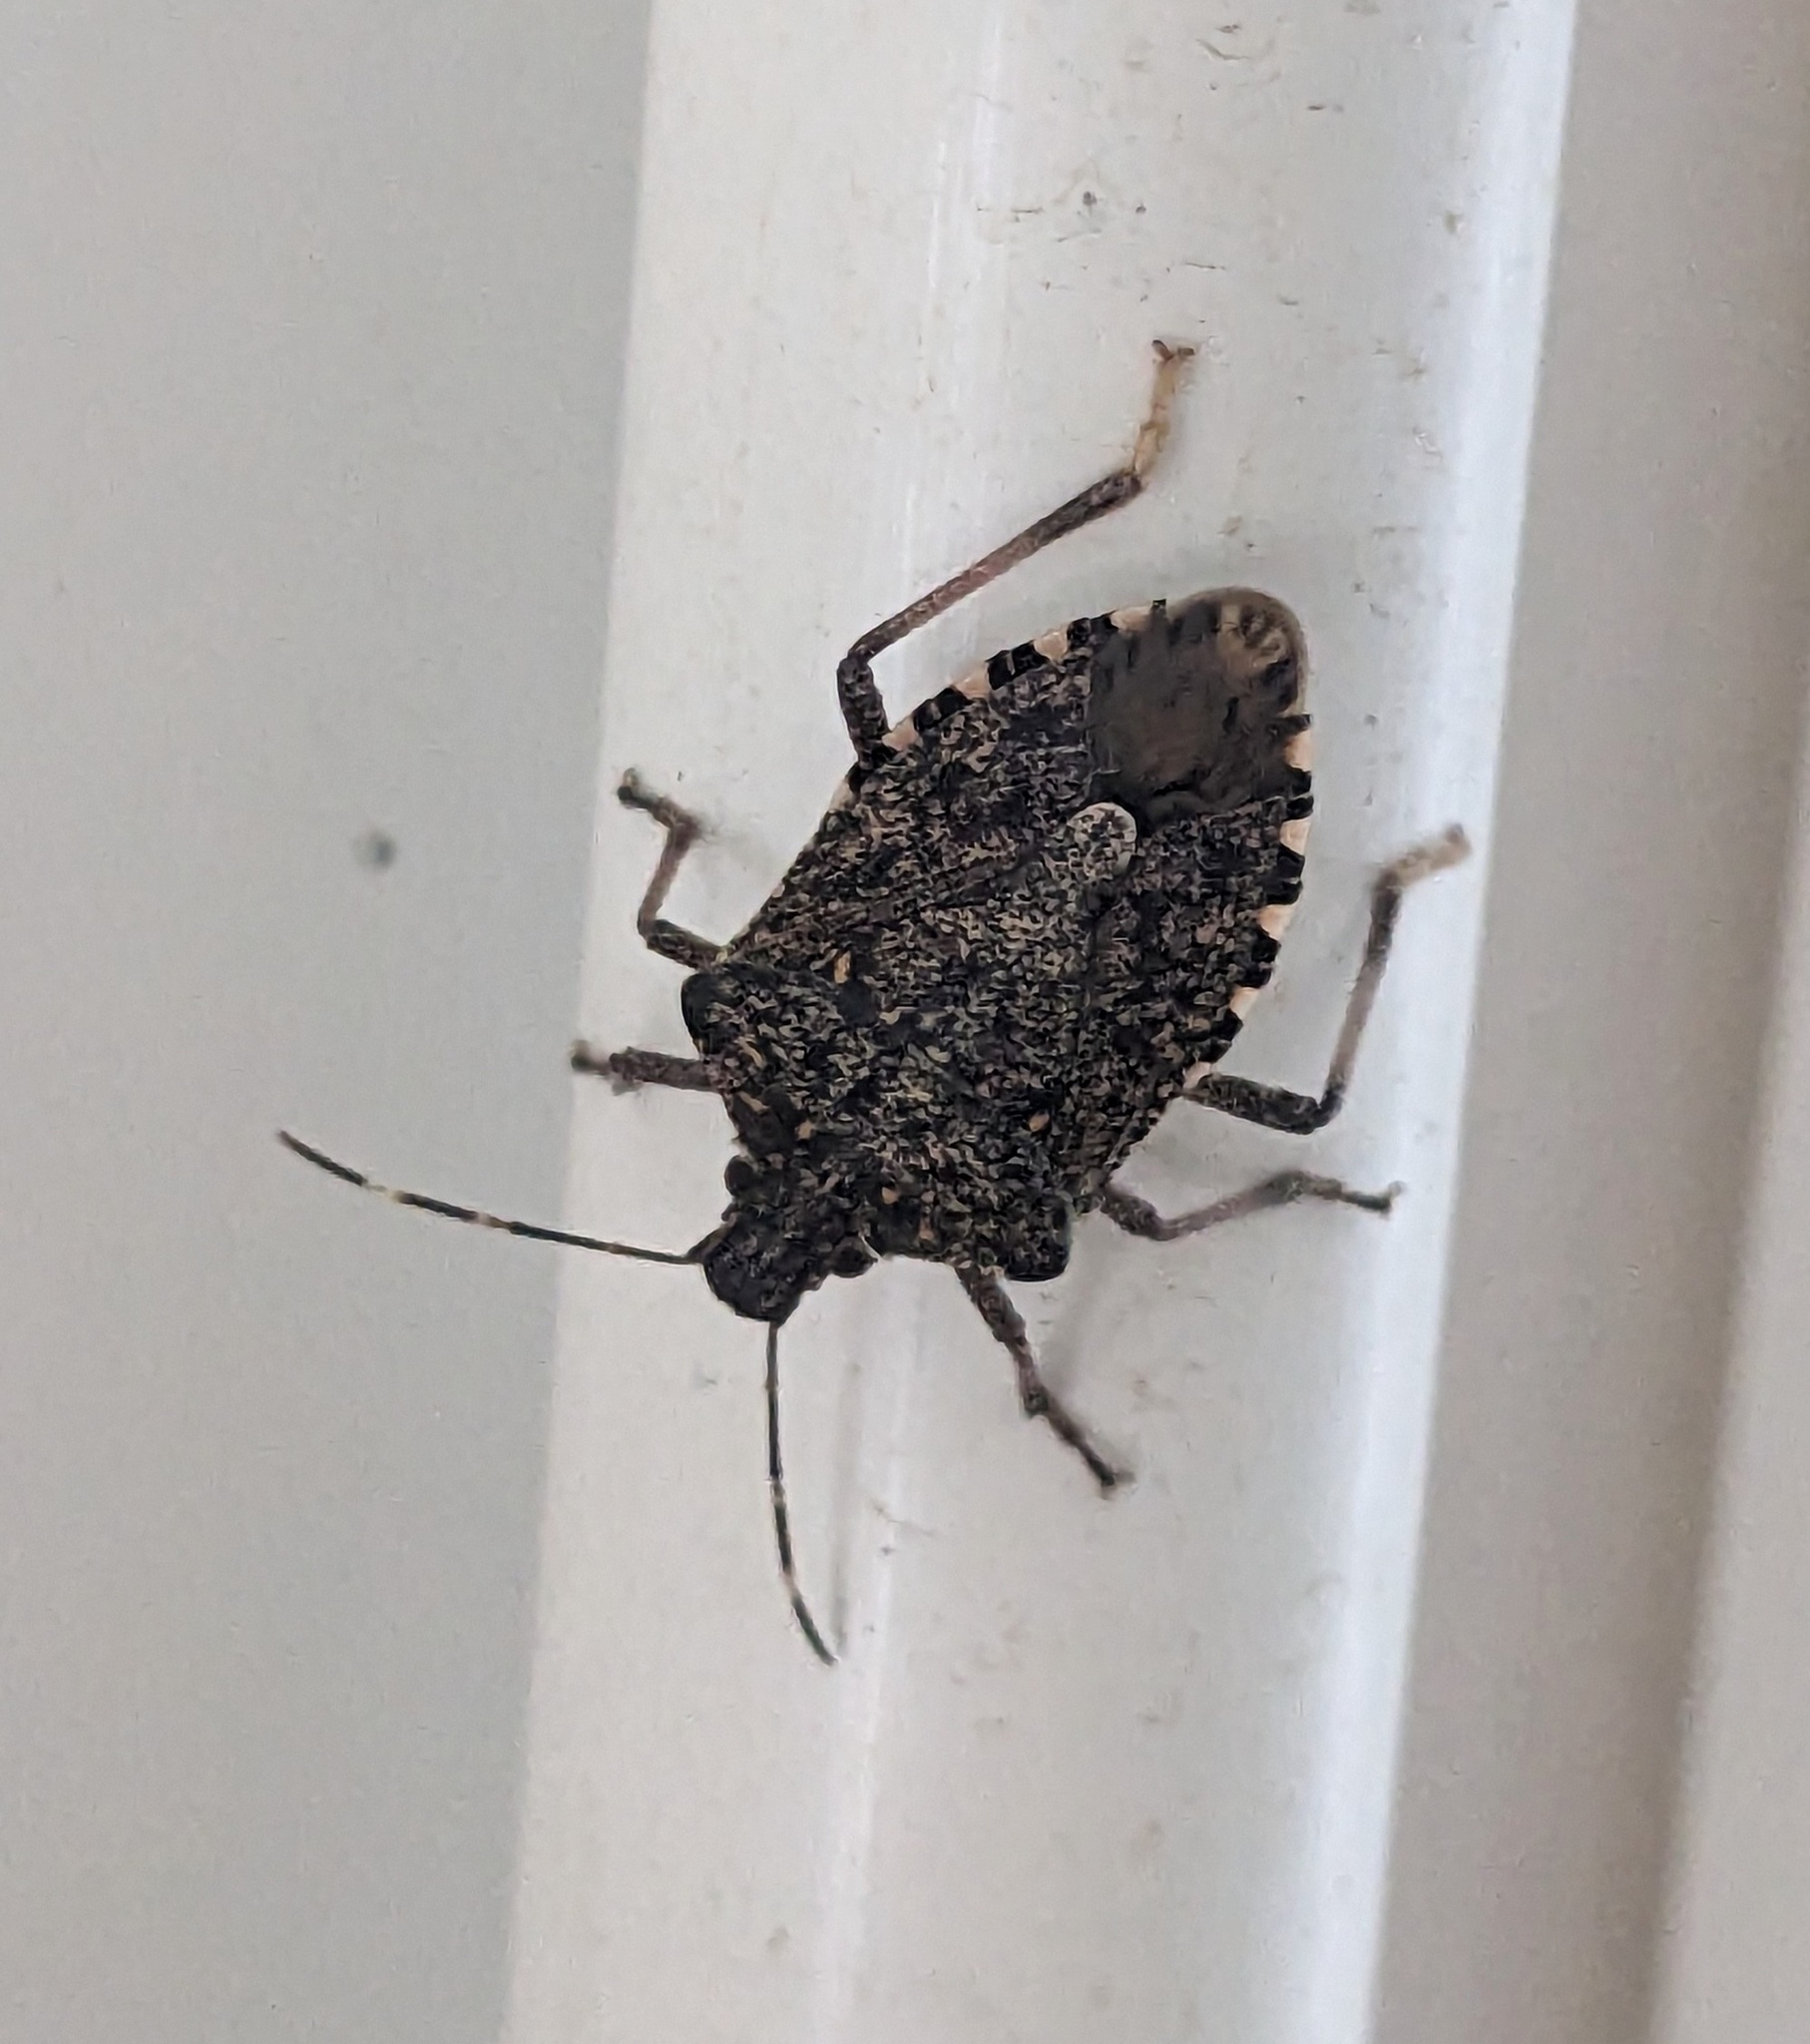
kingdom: Animalia
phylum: Arthropoda
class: Insecta
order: Hemiptera
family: Pentatomidae
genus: Halyomorpha
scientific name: Halyomorpha halys
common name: Brown marmorated stink bug
